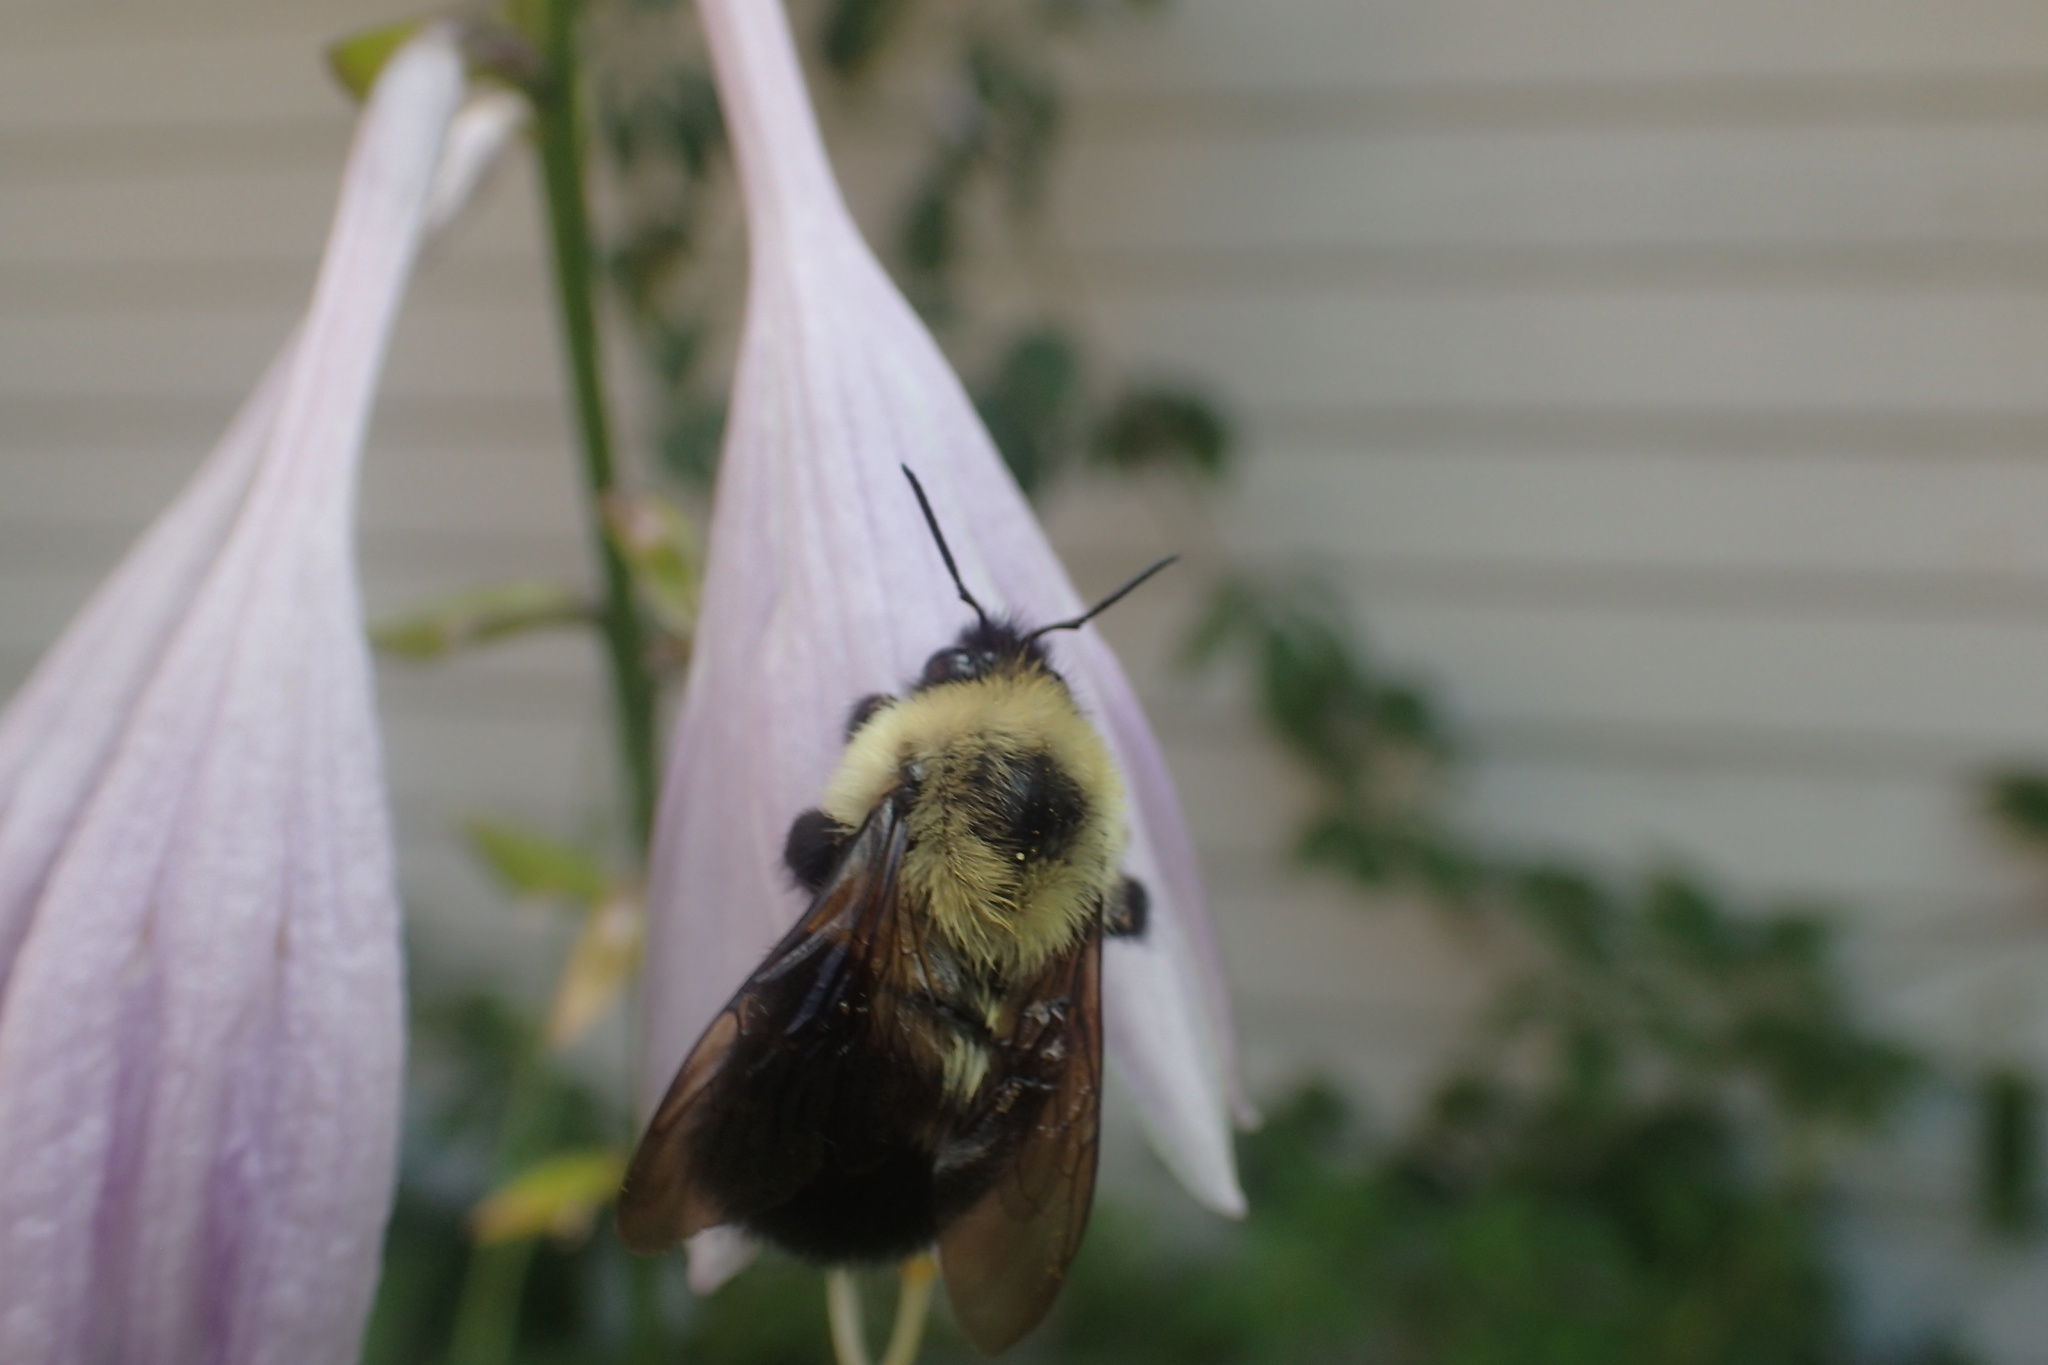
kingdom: Animalia
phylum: Arthropoda
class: Insecta
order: Hymenoptera
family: Apidae
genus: Bombus
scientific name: Bombus bimaculatus
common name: Two-spotted bumble bee
